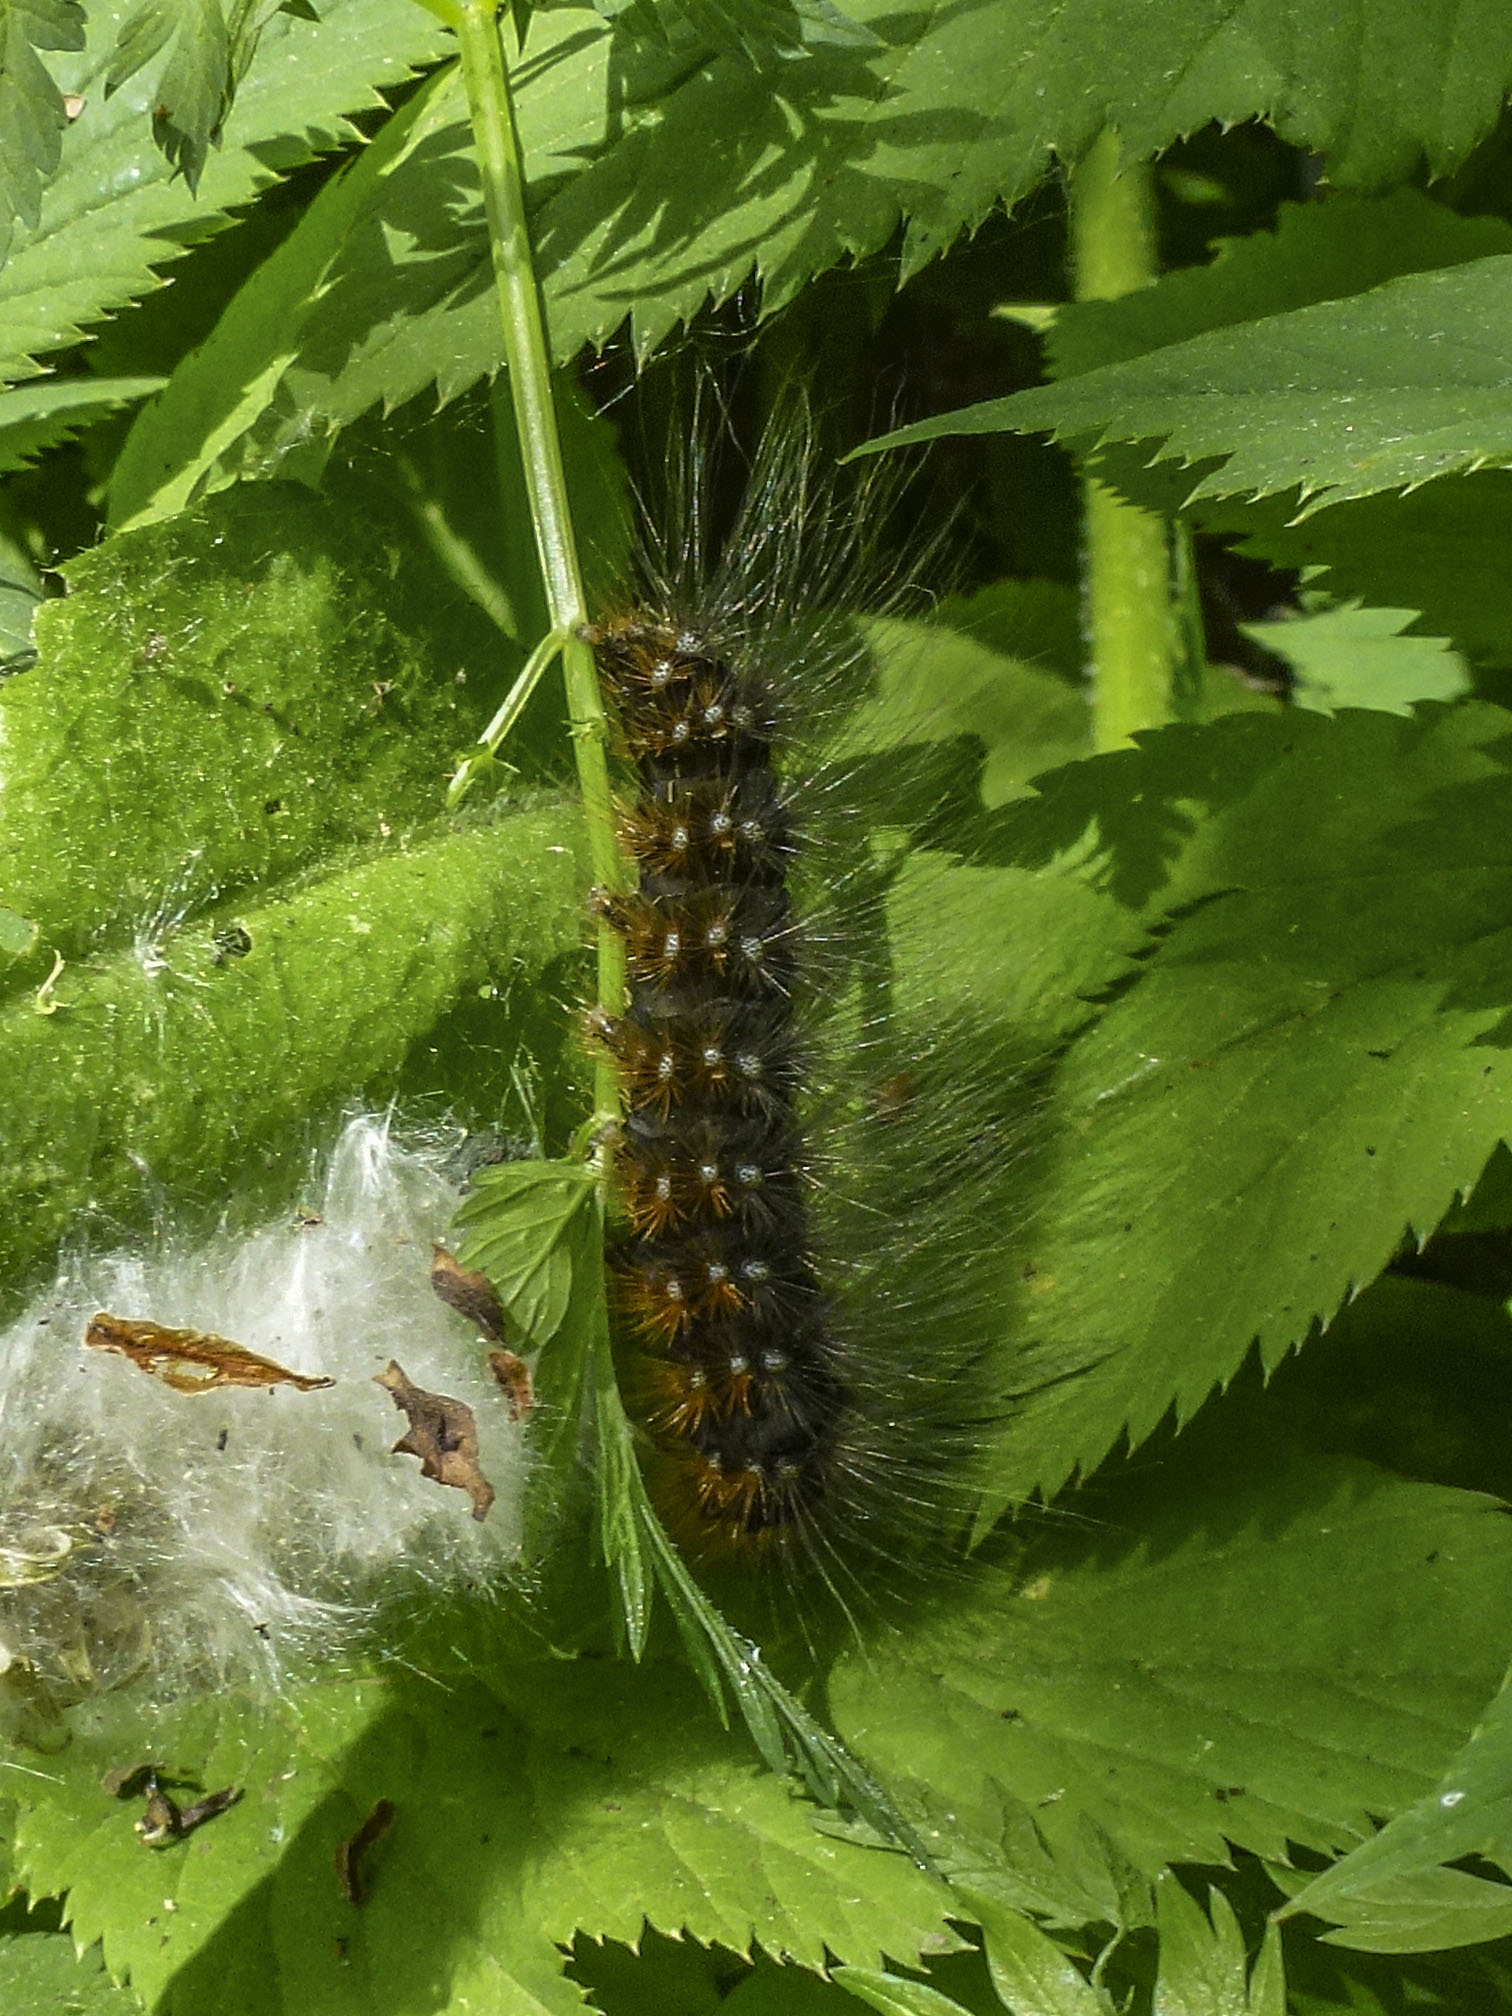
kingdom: Animalia
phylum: Arthropoda
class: Insecta
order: Lepidoptera
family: Erebidae
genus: Arctia
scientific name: Arctia caja
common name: Garden tiger
